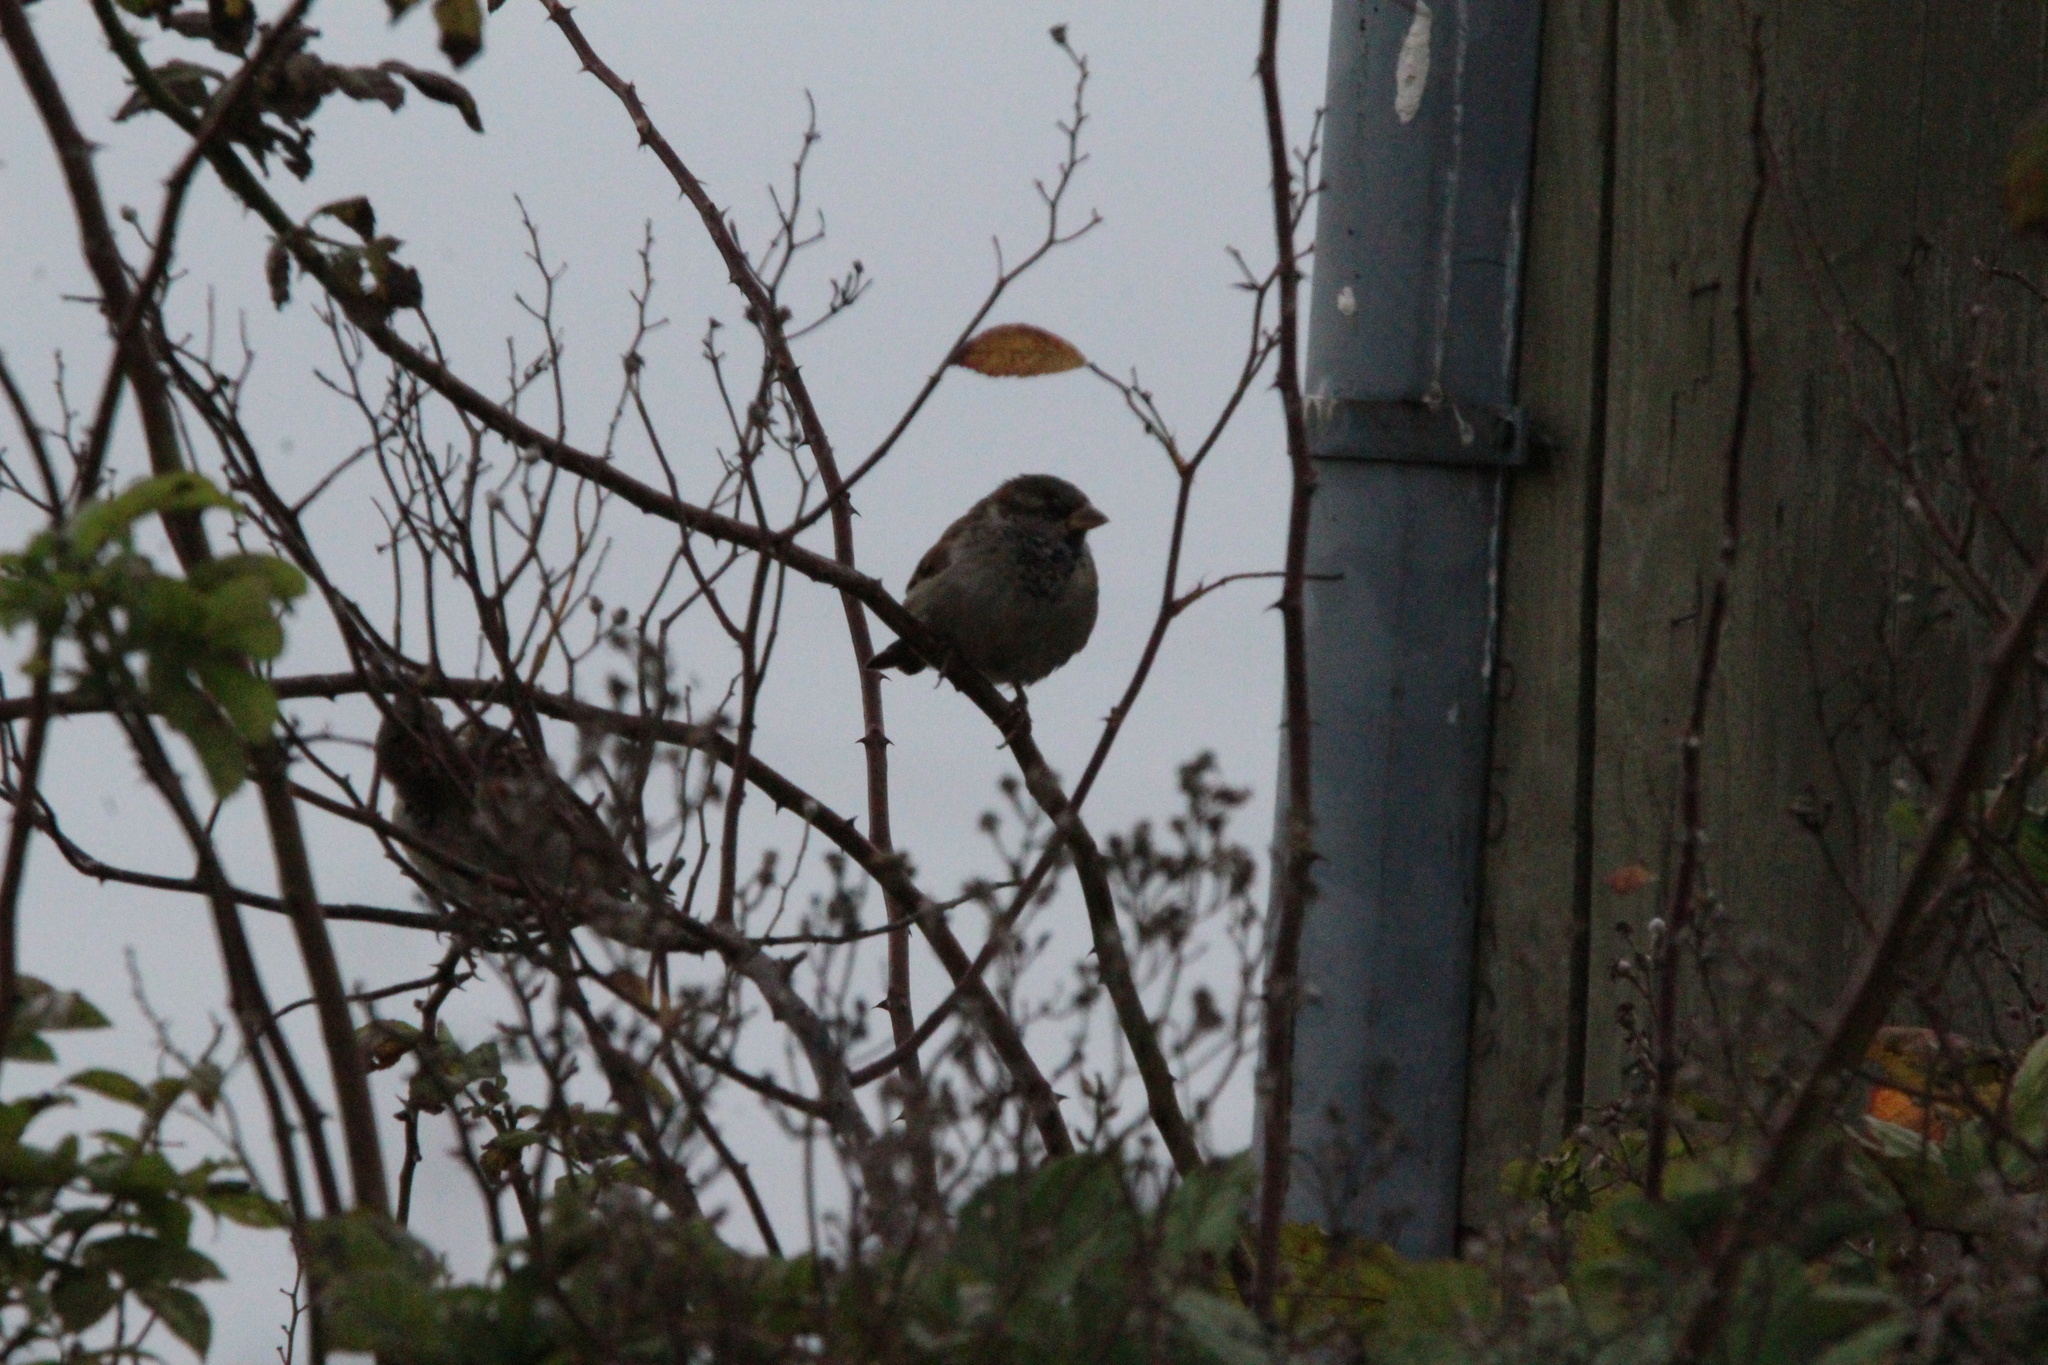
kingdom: Animalia
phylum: Chordata
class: Aves
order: Passeriformes
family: Passeridae
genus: Passer
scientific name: Passer domesticus
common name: House sparrow
